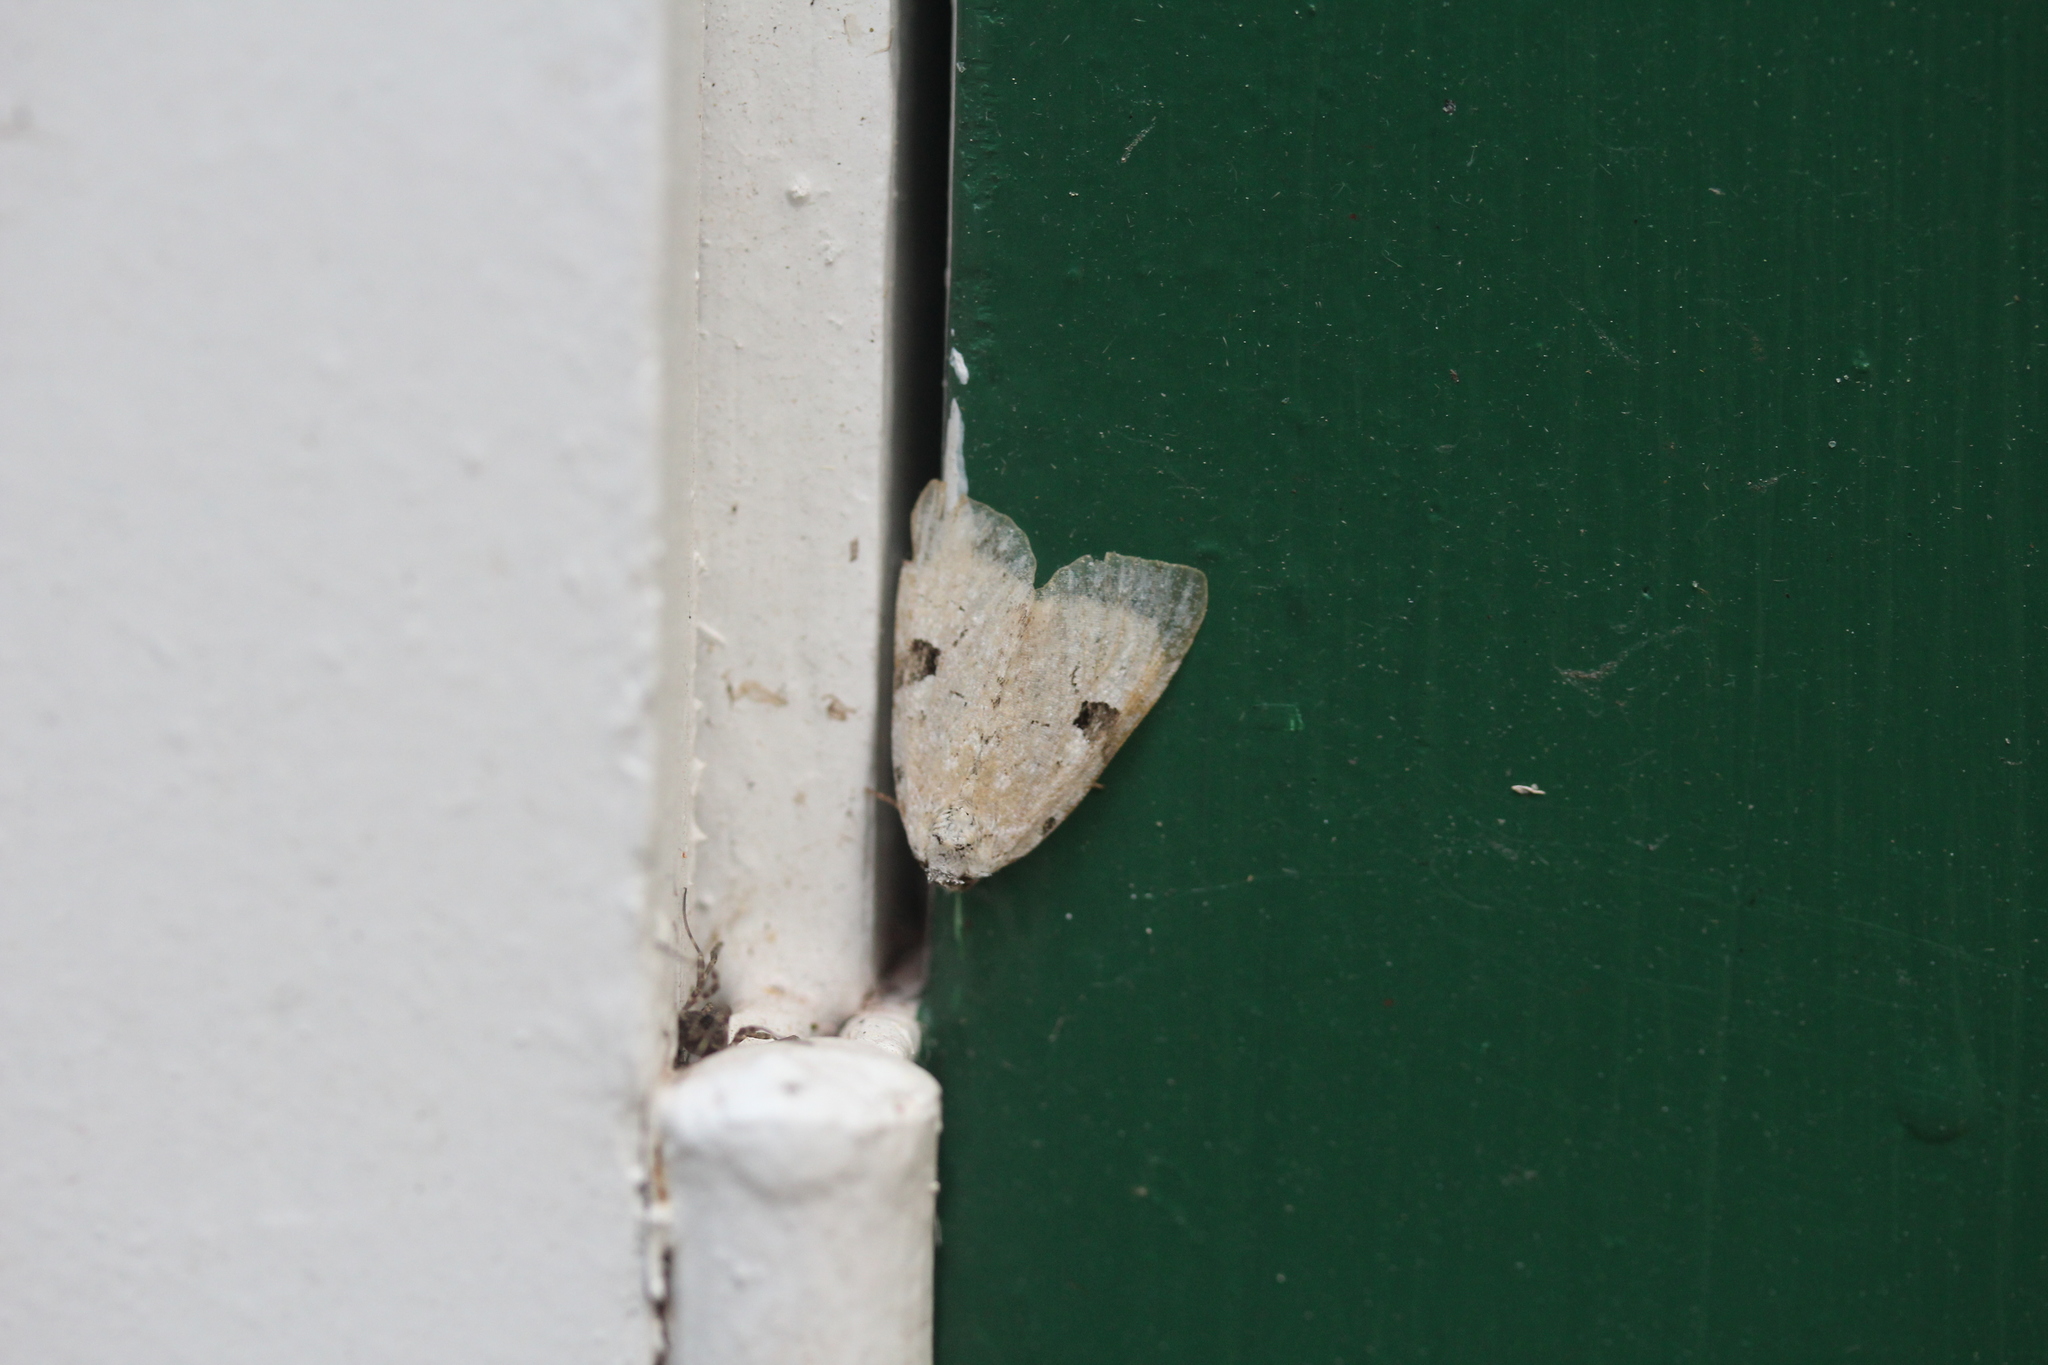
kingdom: Animalia
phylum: Arthropoda
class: Insecta
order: Lepidoptera
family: Noctuidae
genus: Leuconycta
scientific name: Leuconycta diphteroides
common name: Green leuconycta moth
